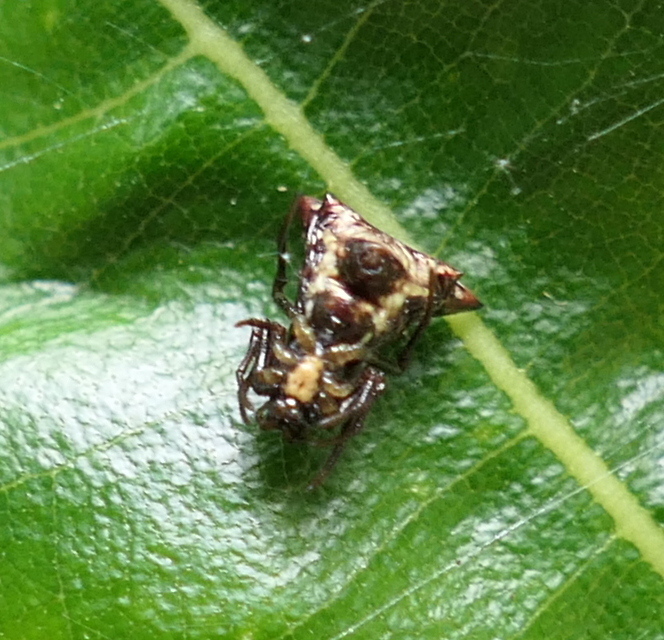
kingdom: Animalia
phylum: Arthropoda
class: Arachnida
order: Araneae
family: Araneidae
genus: Micrathena
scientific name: Micrathena evansi
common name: Orb weavers
